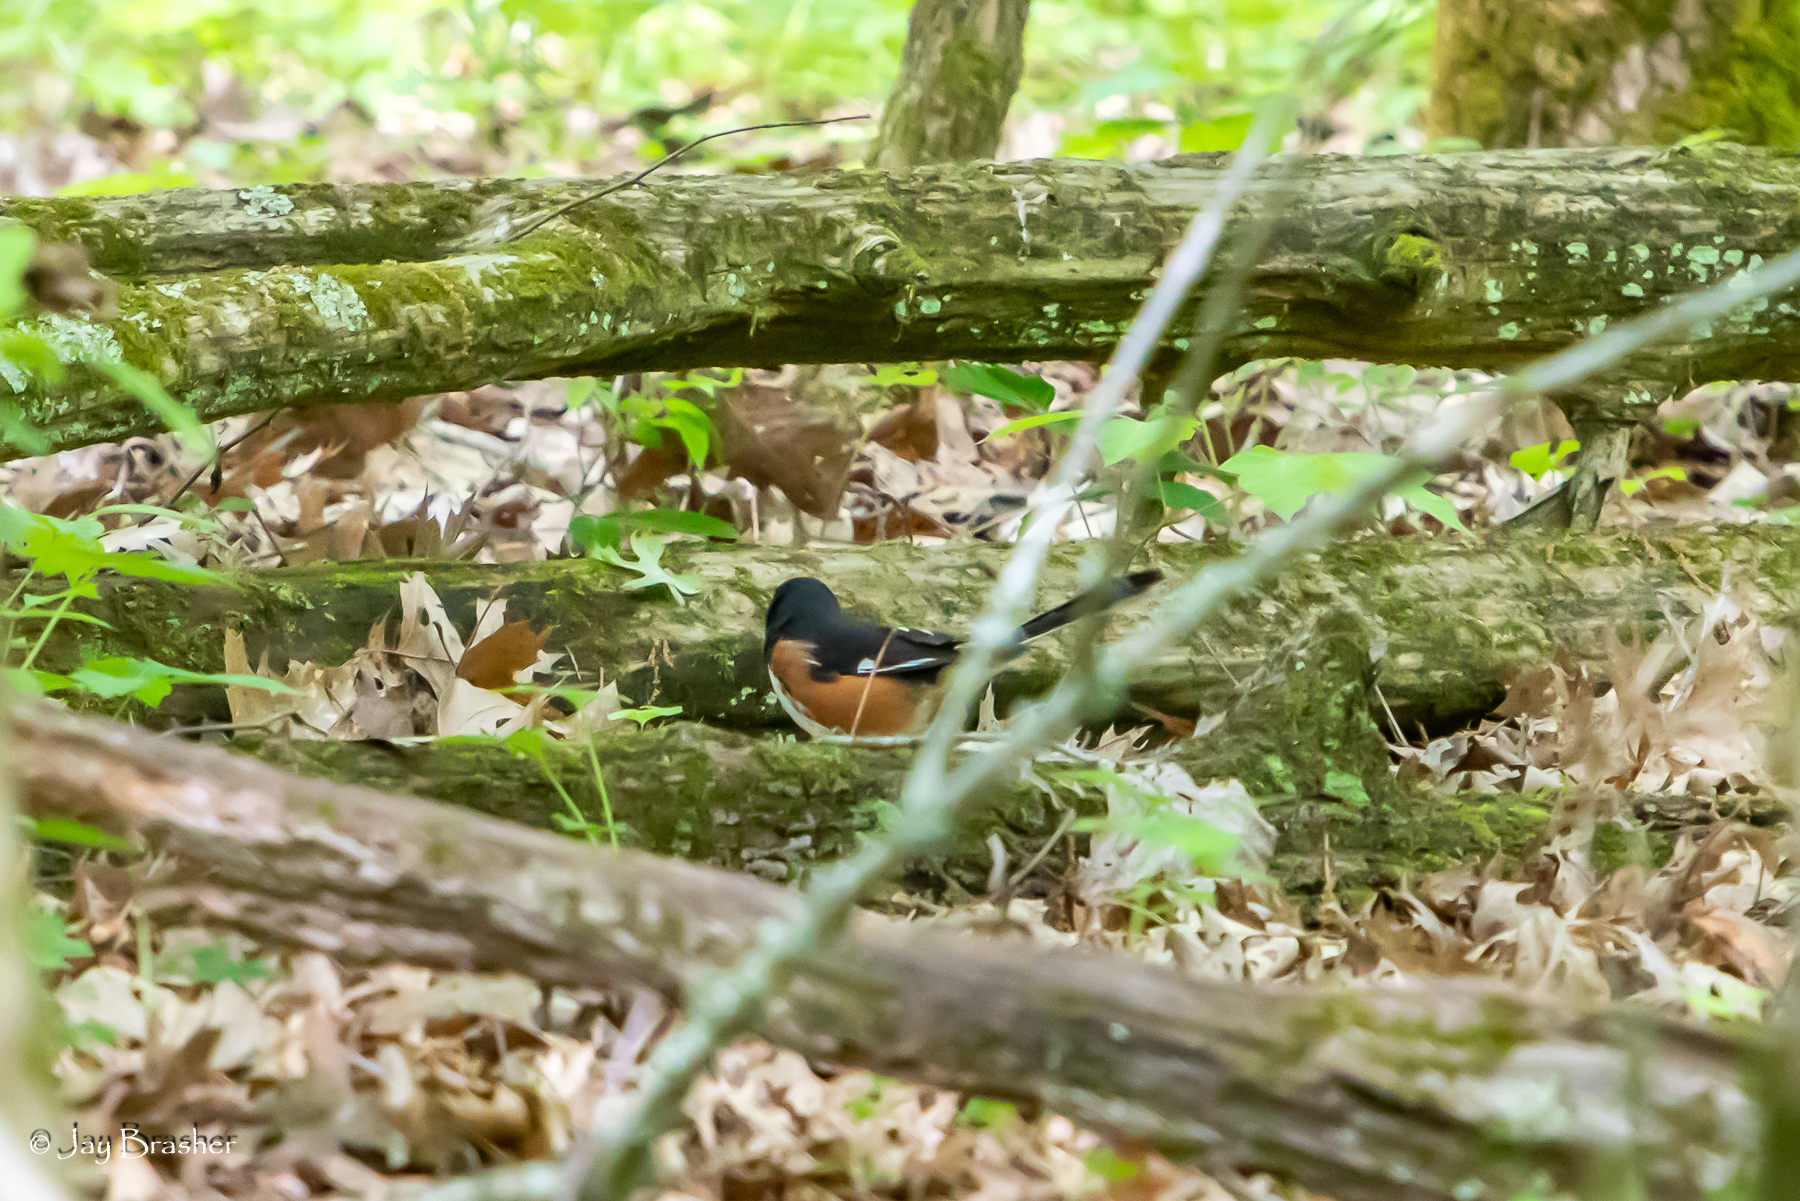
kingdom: Animalia
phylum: Chordata
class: Aves
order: Passeriformes
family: Passerellidae
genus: Pipilo
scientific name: Pipilo erythrophthalmus
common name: Eastern towhee
